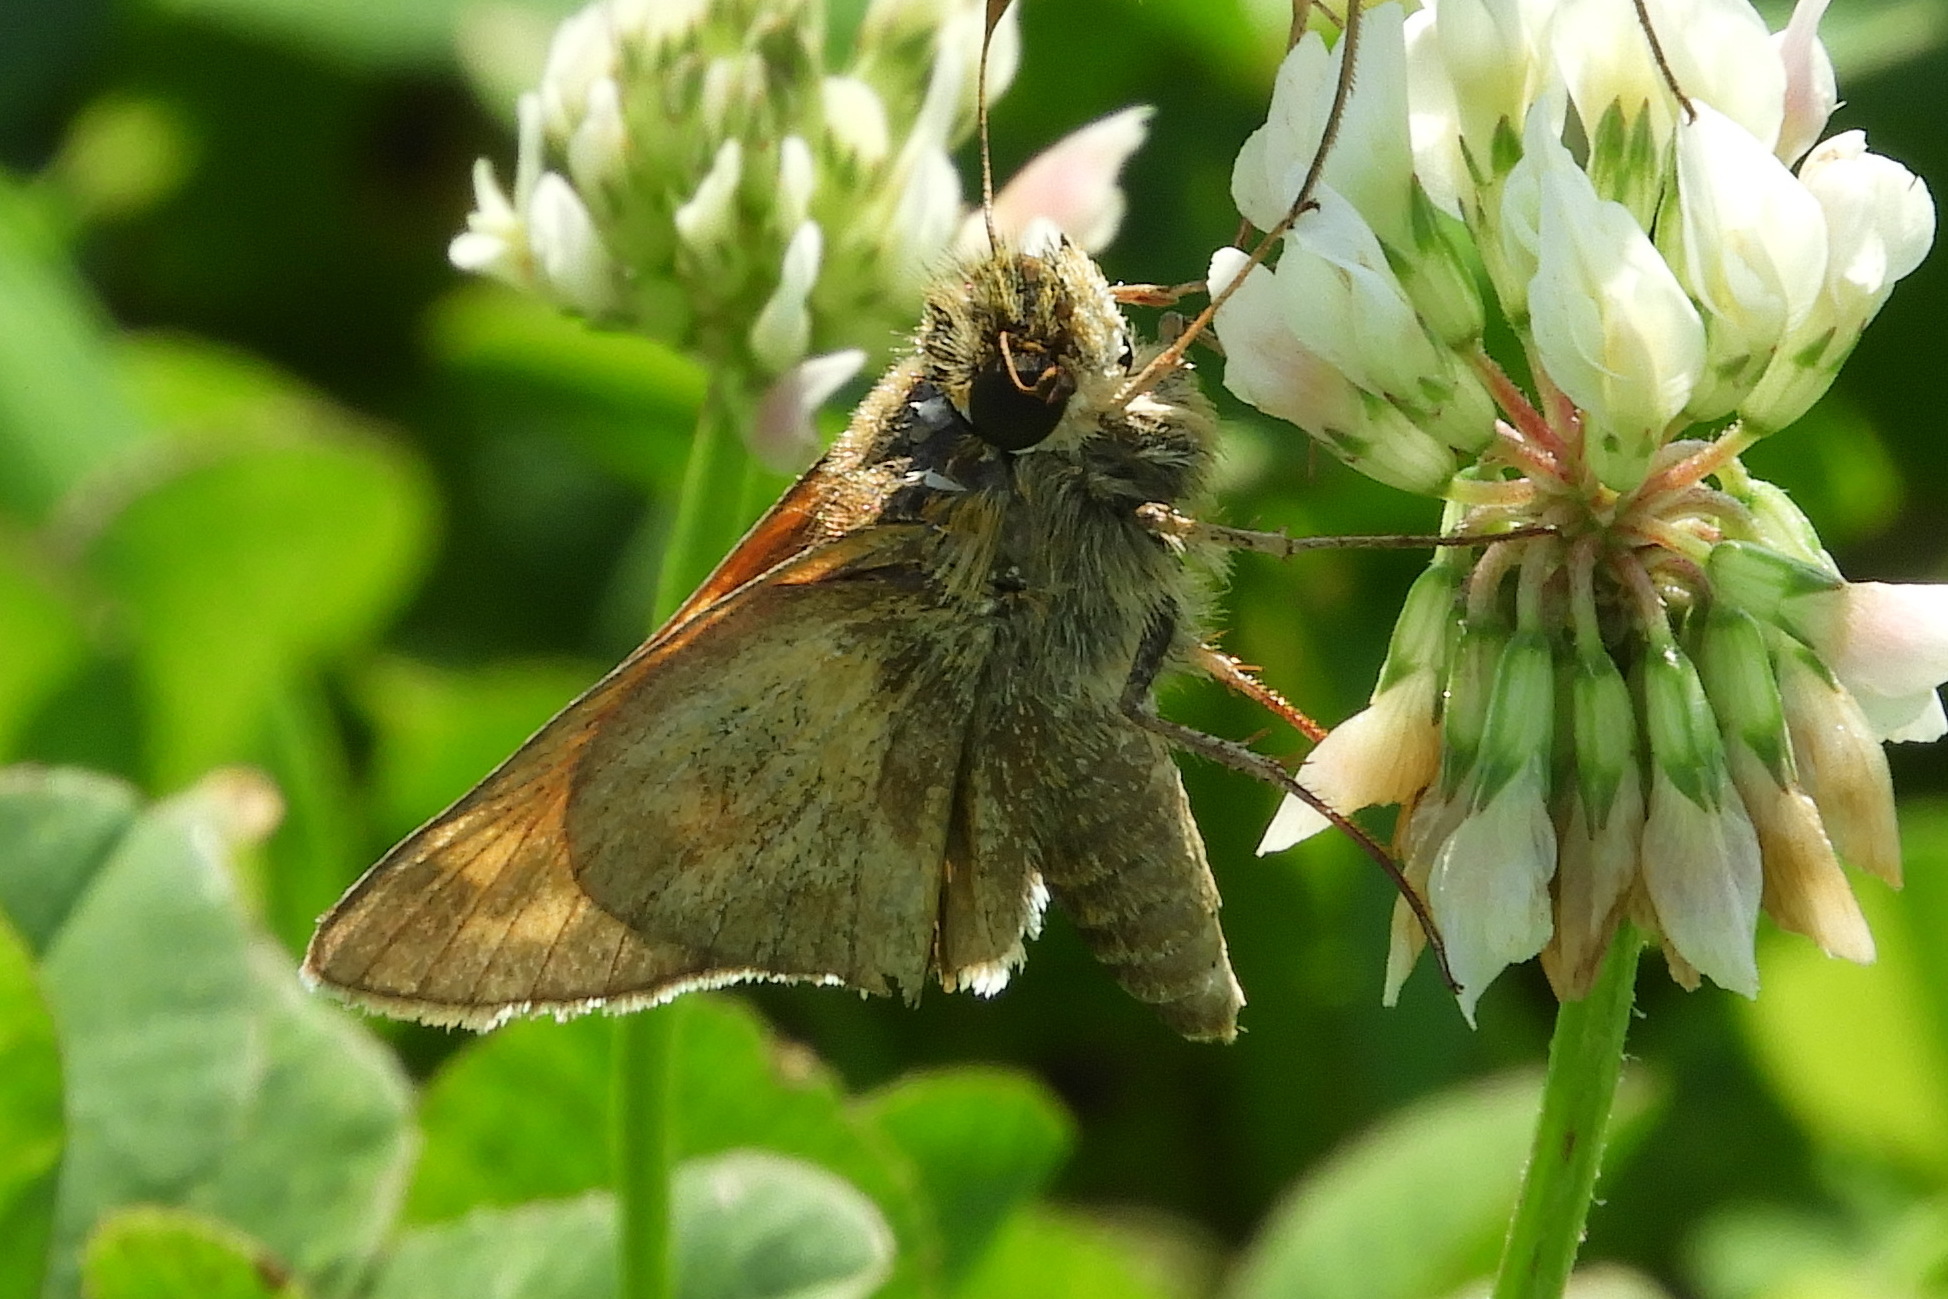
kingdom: Animalia
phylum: Arthropoda
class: Insecta
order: Lepidoptera
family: Hesperiidae
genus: Atalopedes
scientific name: Atalopedes
